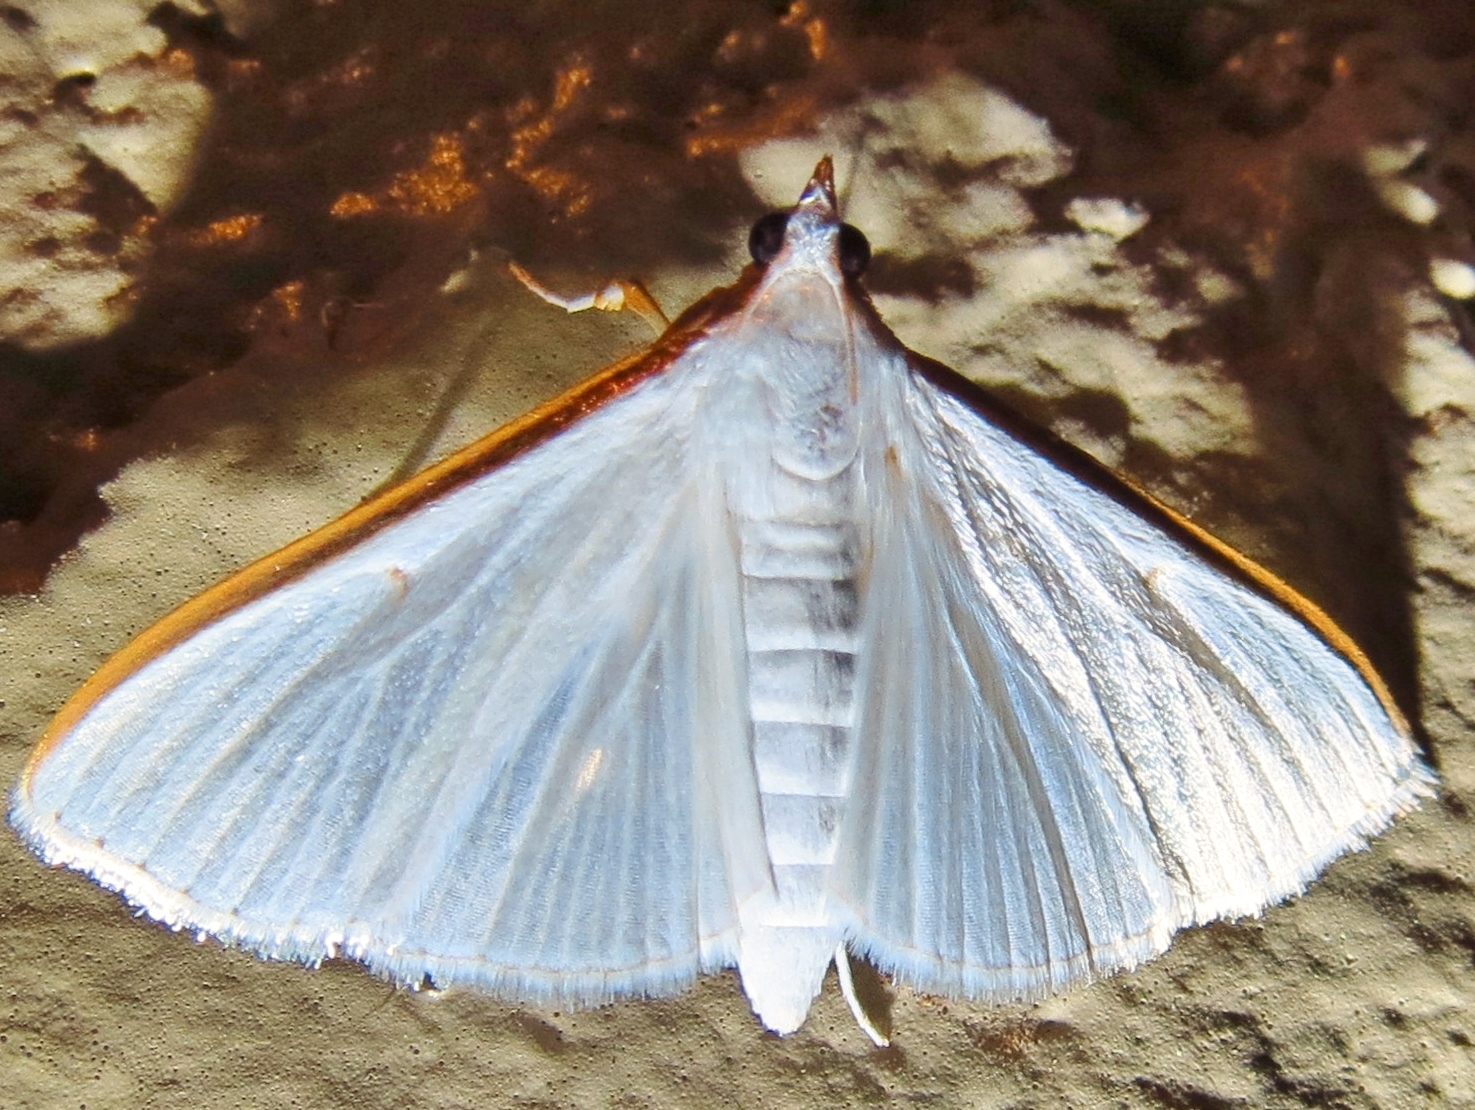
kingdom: Animalia
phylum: Arthropoda
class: Insecta
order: Lepidoptera
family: Crambidae
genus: Diaphania
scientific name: Diaphania costata
